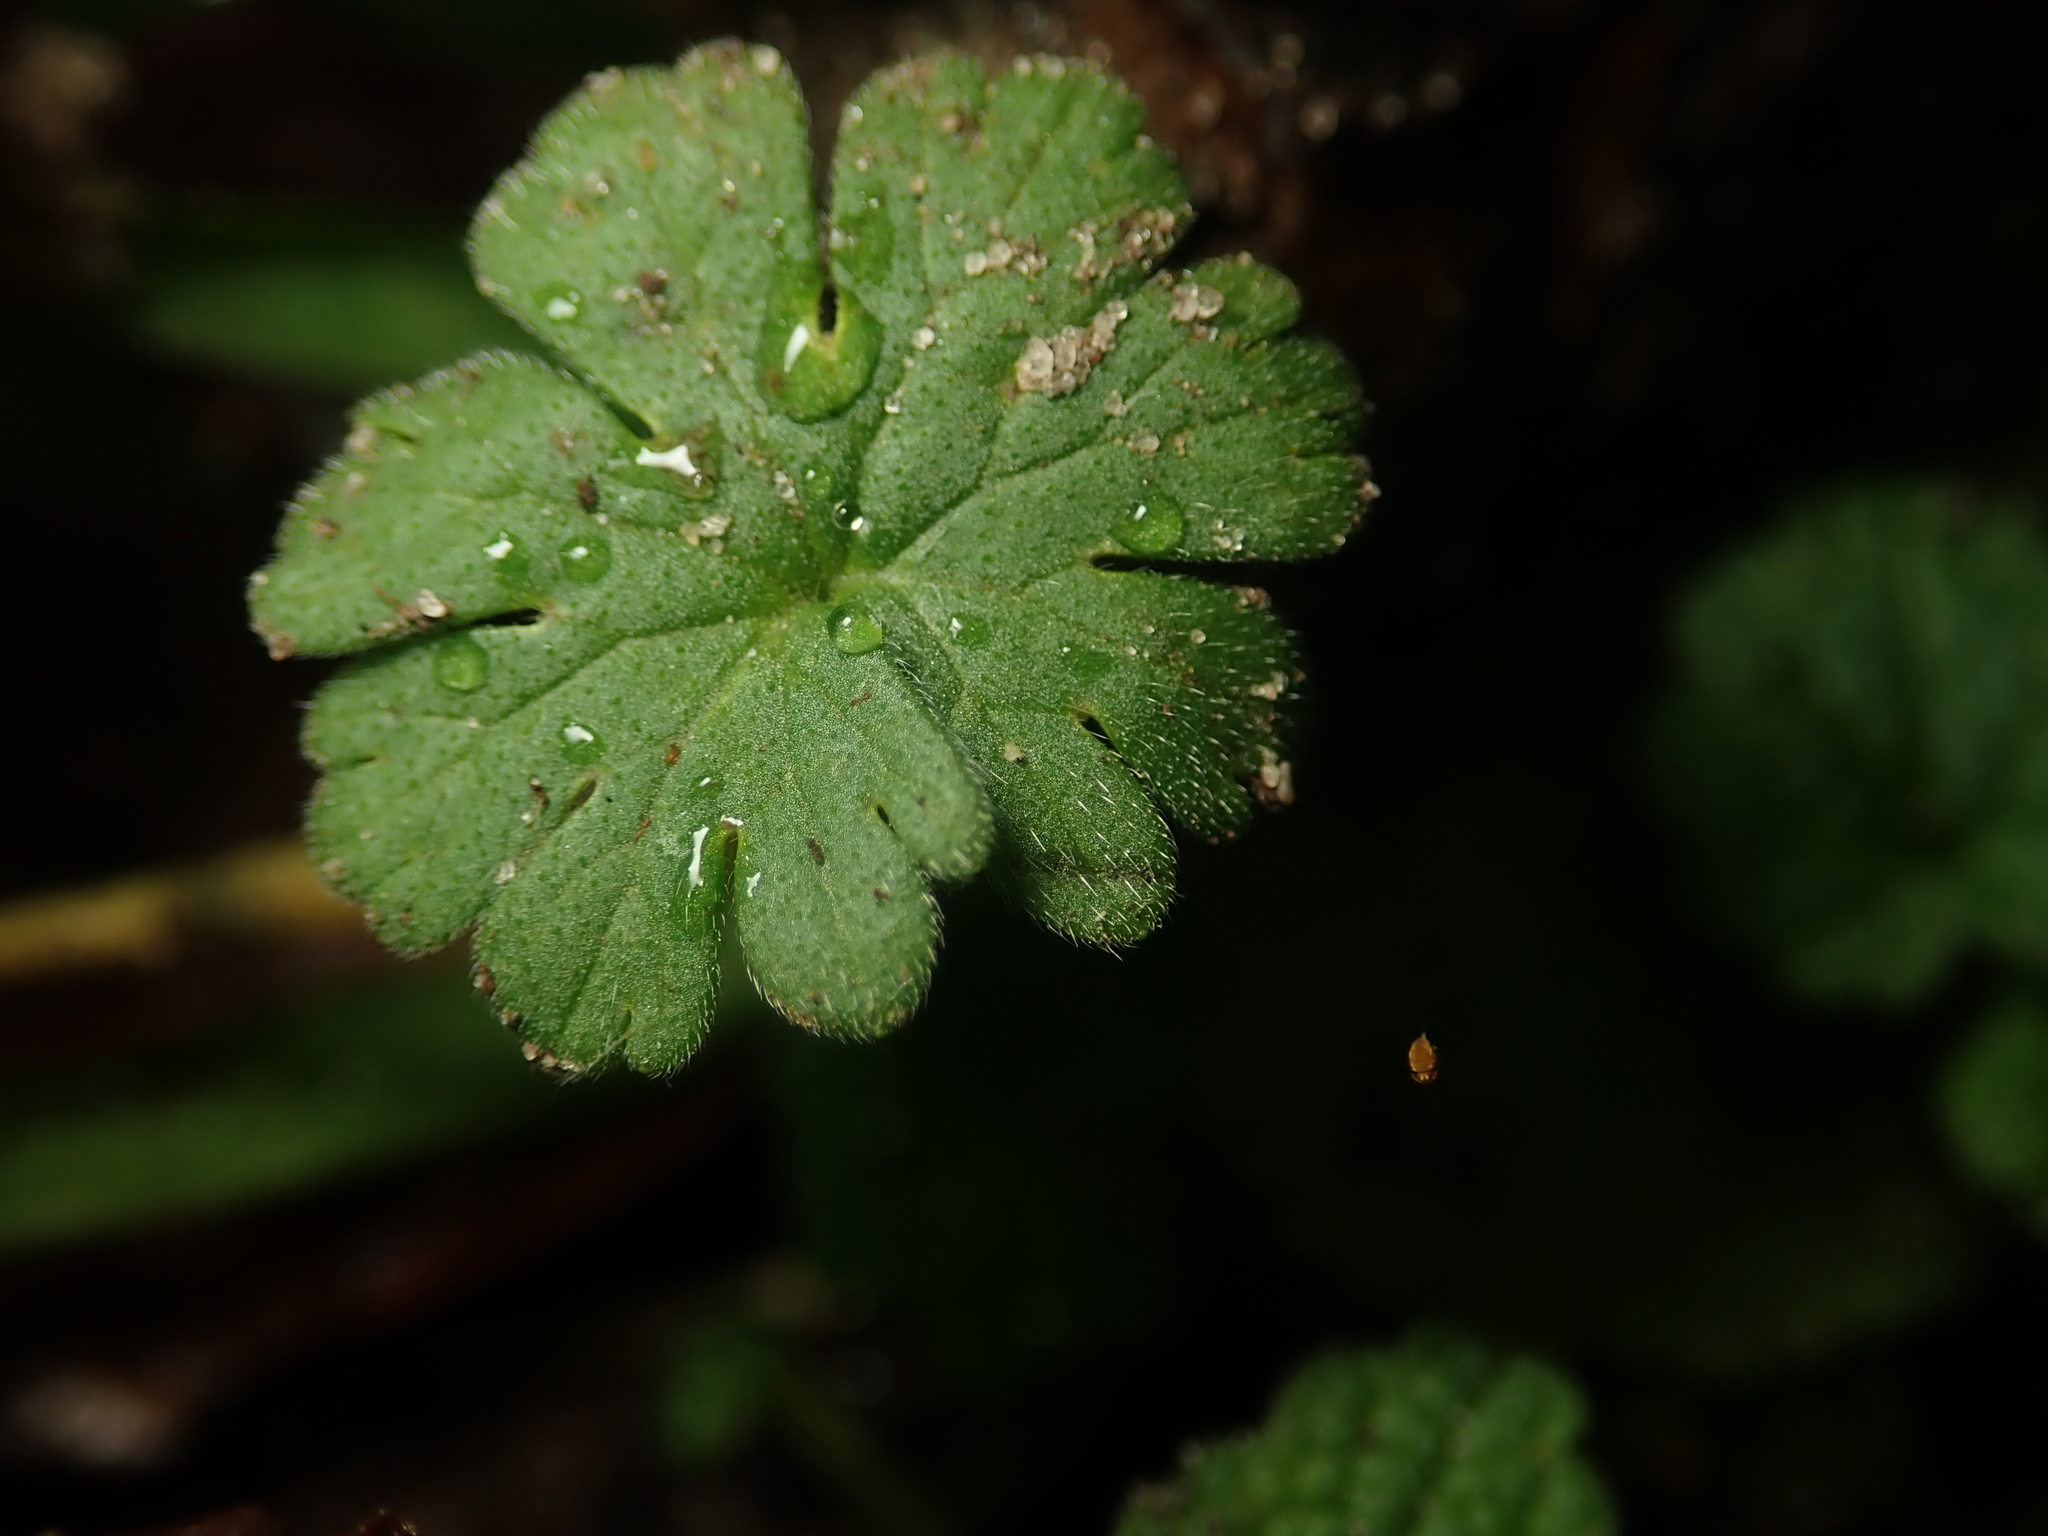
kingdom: Plantae
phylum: Tracheophyta
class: Magnoliopsida
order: Geraniales
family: Geraniaceae
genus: Geranium
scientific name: Geranium molle
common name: Dove's-foot crane's-bill
